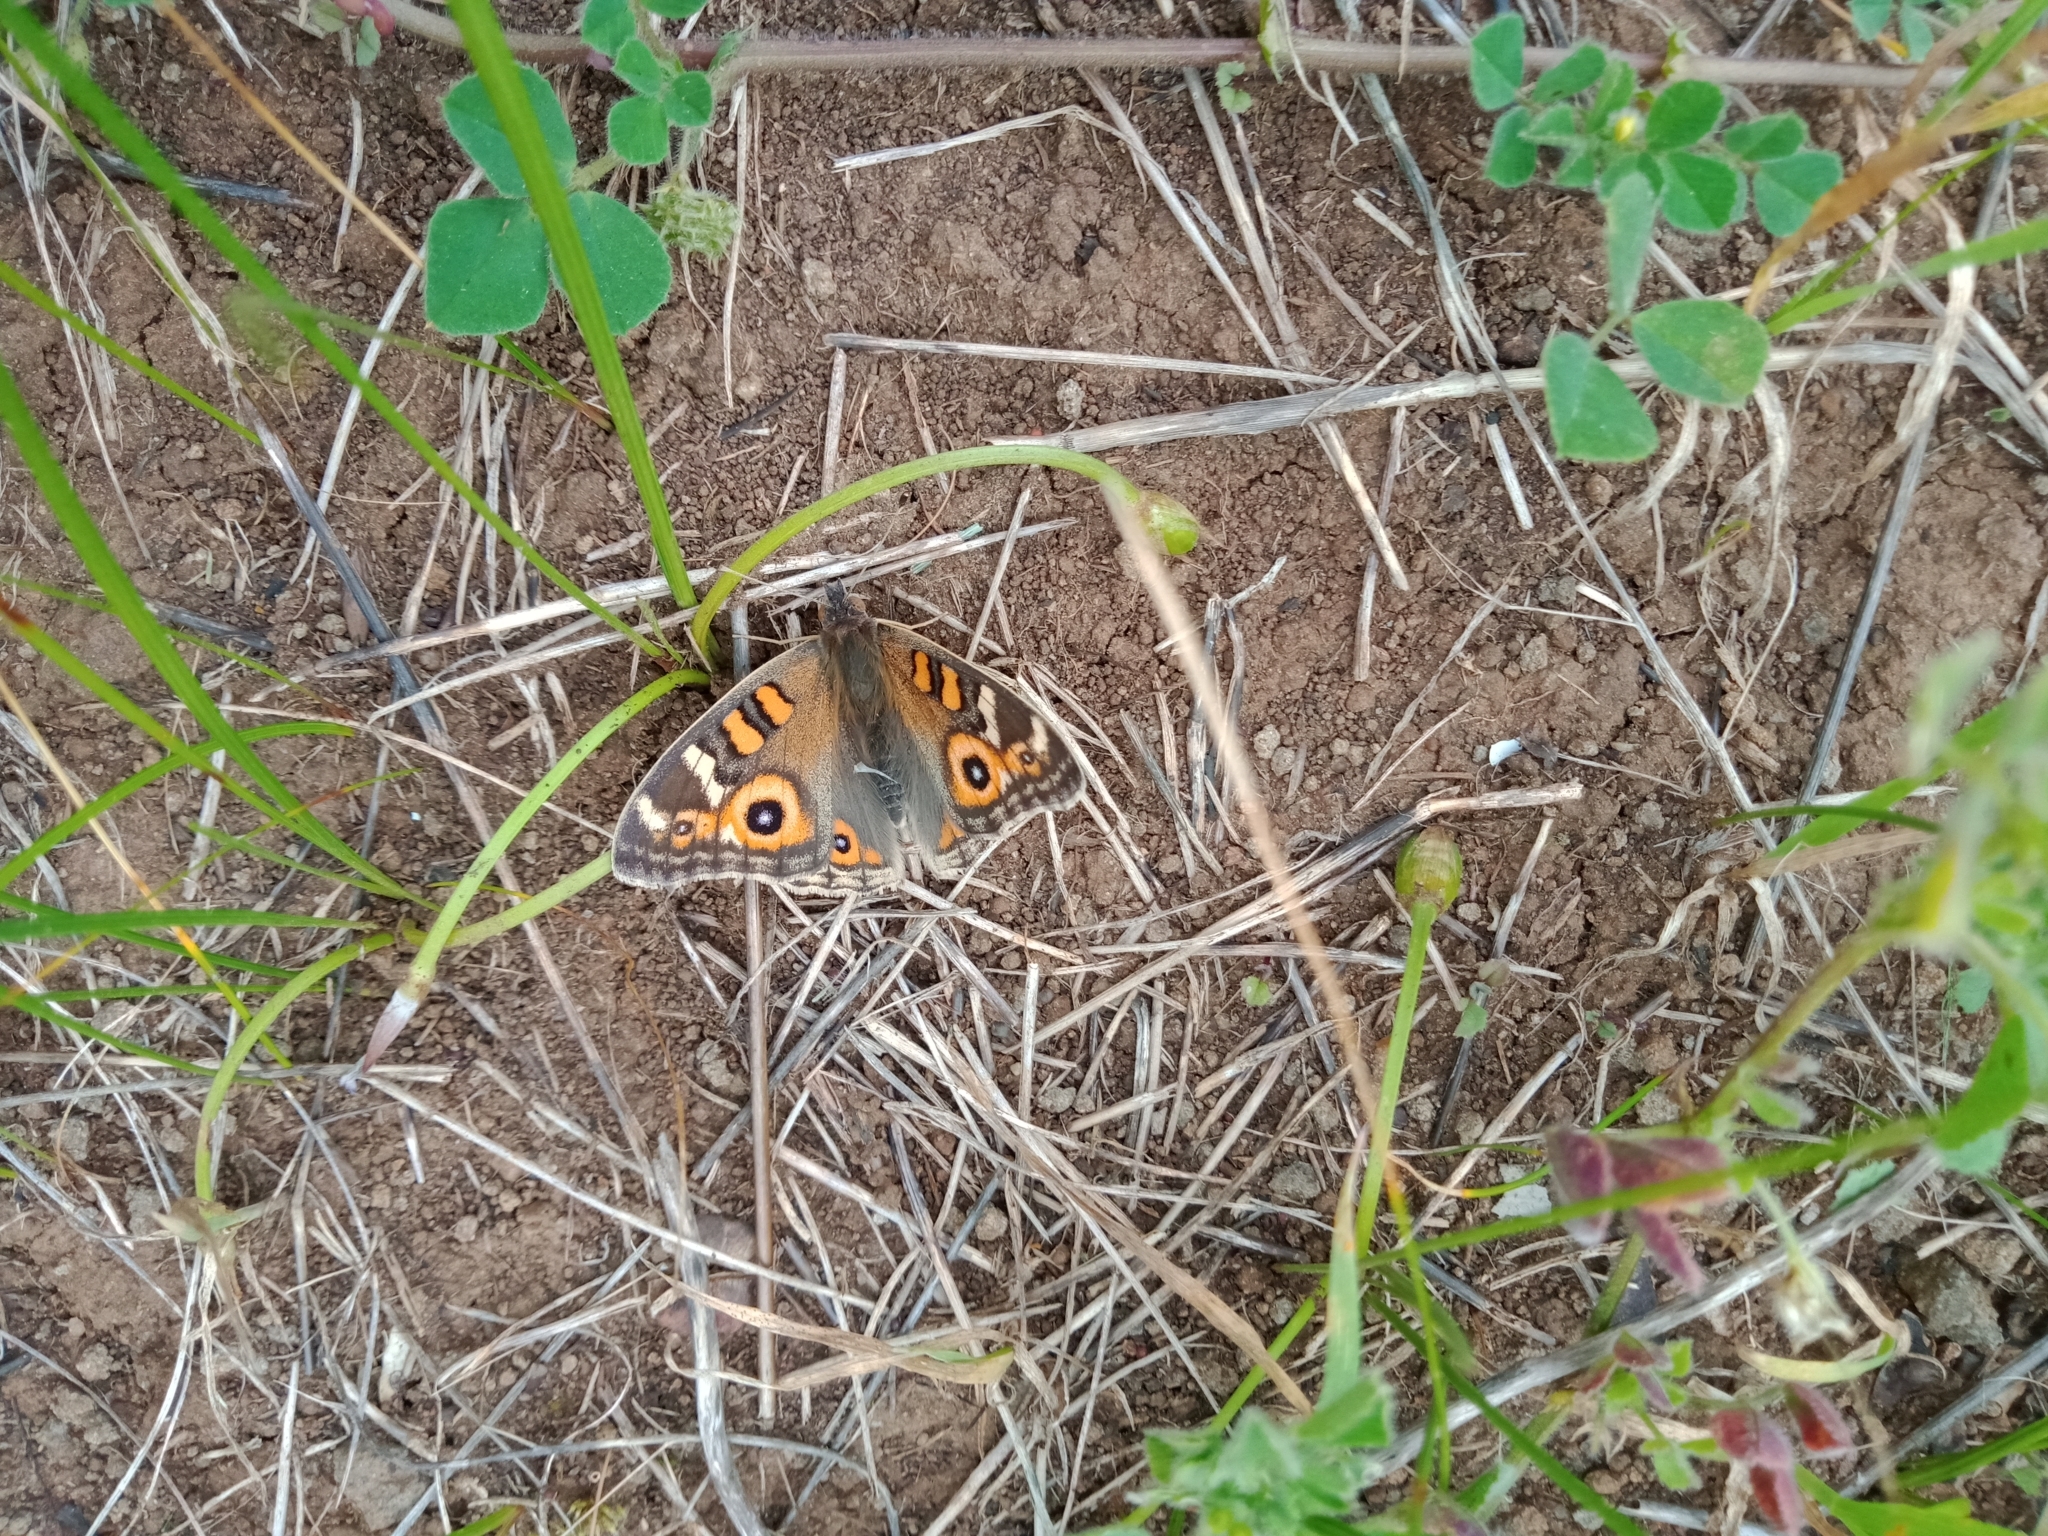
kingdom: Animalia
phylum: Arthropoda
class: Insecta
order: Lepidoptera
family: Nymphalidae
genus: Junonia
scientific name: Junonia villida
